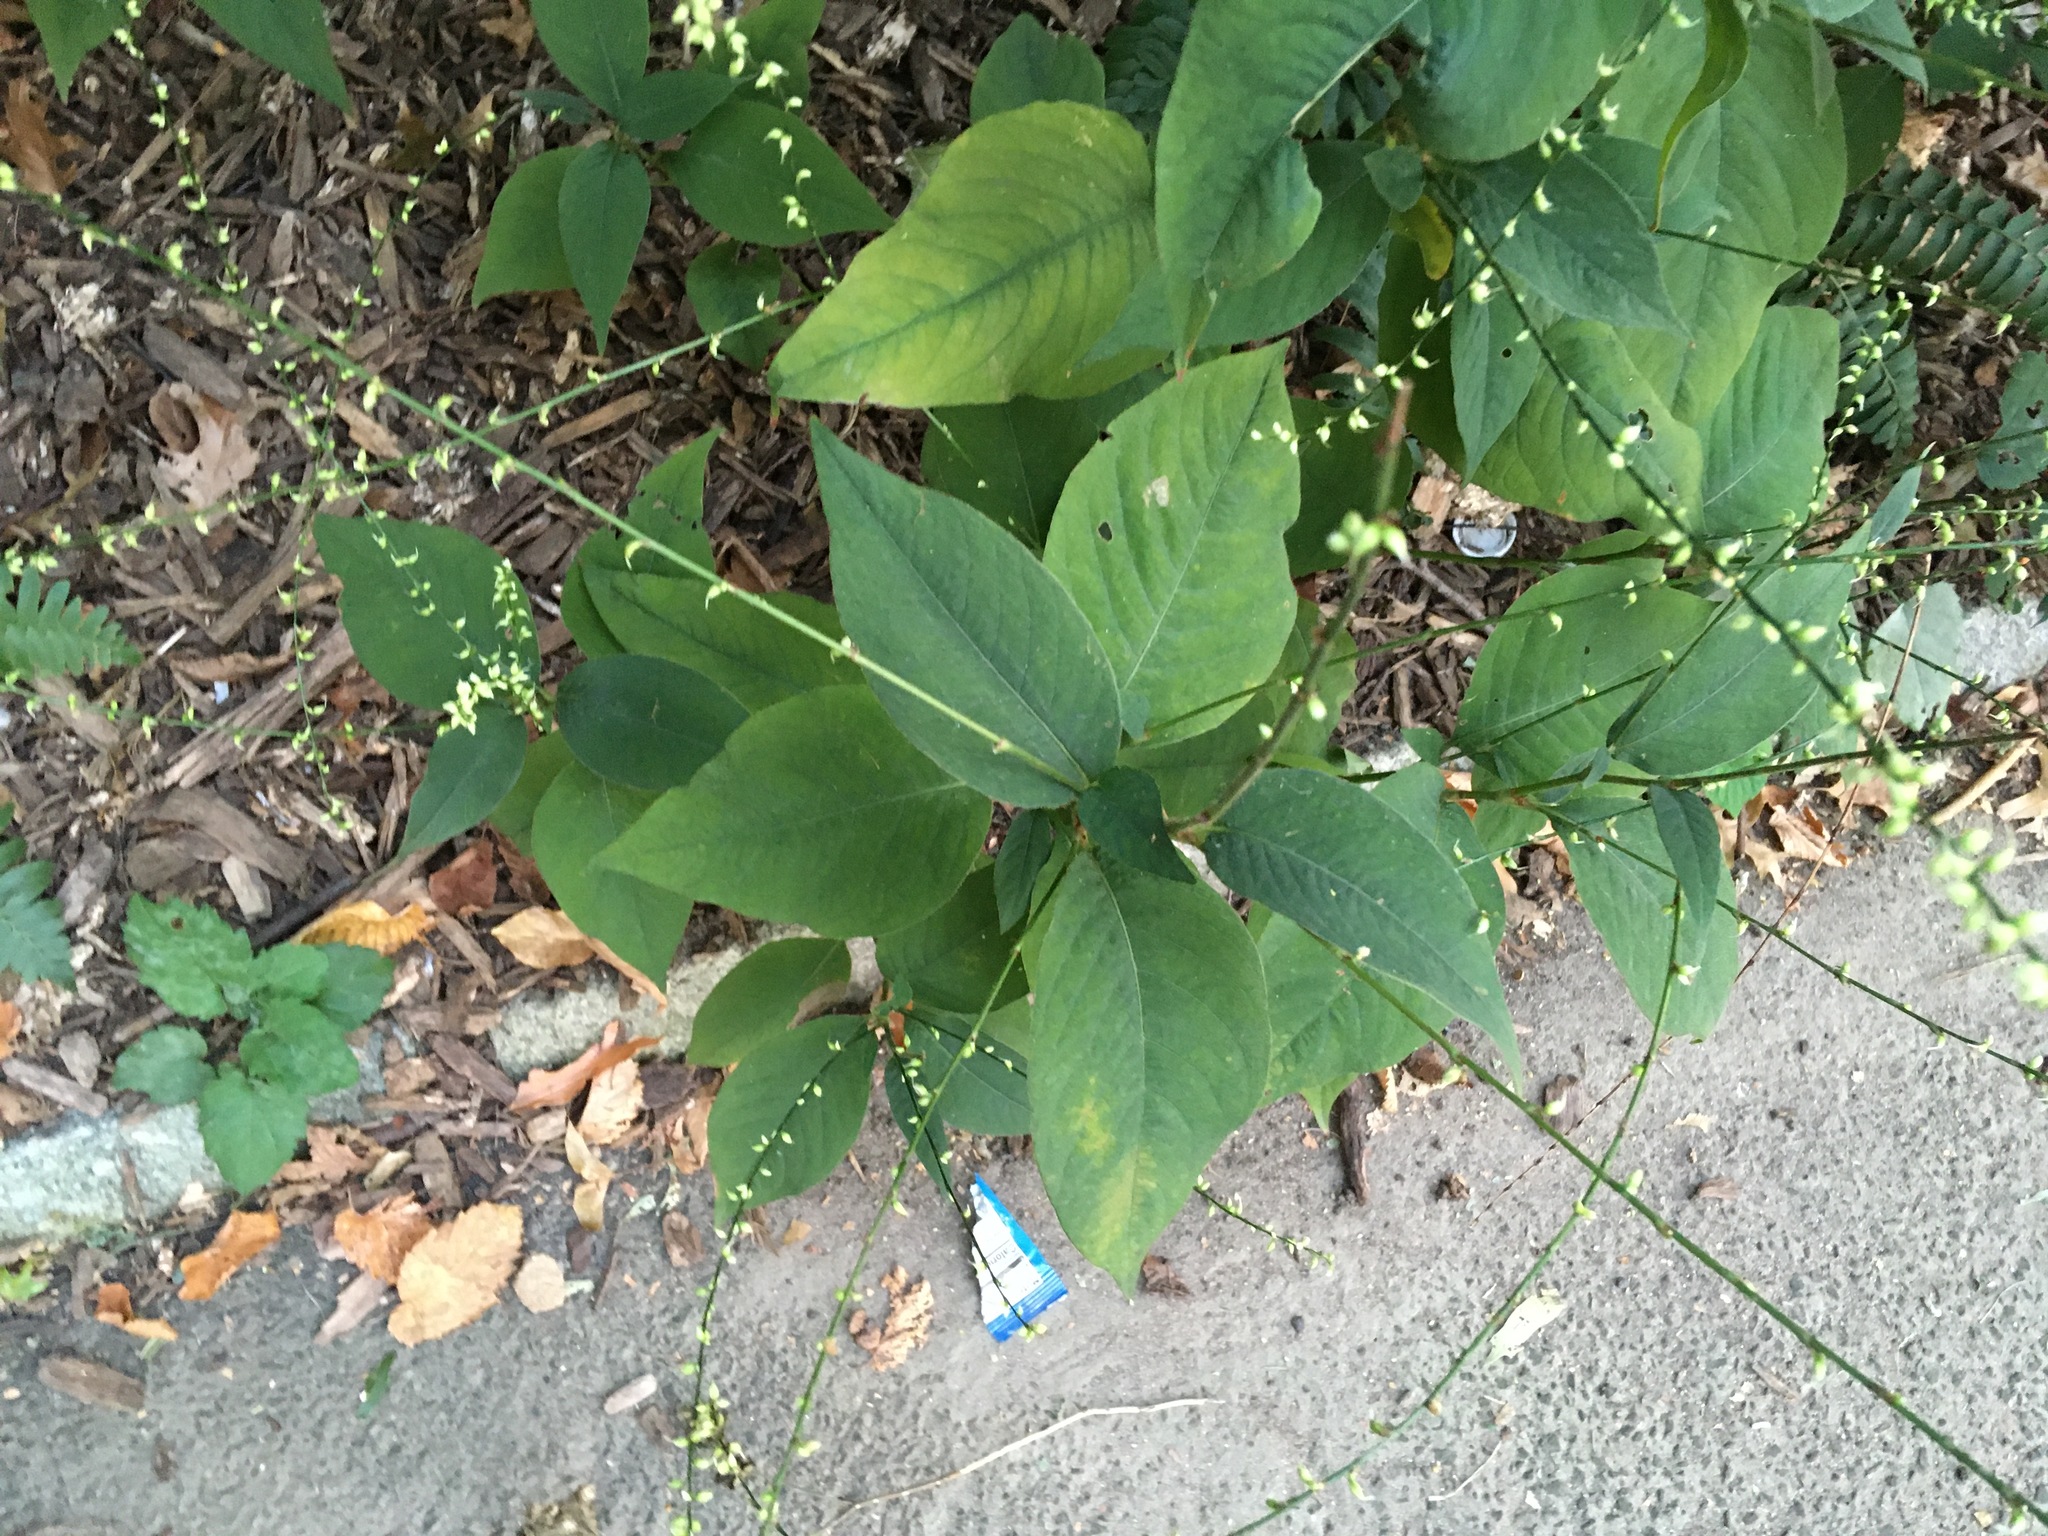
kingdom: Plantae
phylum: Tracheophyta
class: Magnoliopsida
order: Caryophyllales
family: Polygonaceae
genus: Persicaria
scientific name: Persicaria virginiana
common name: Jumpseed
